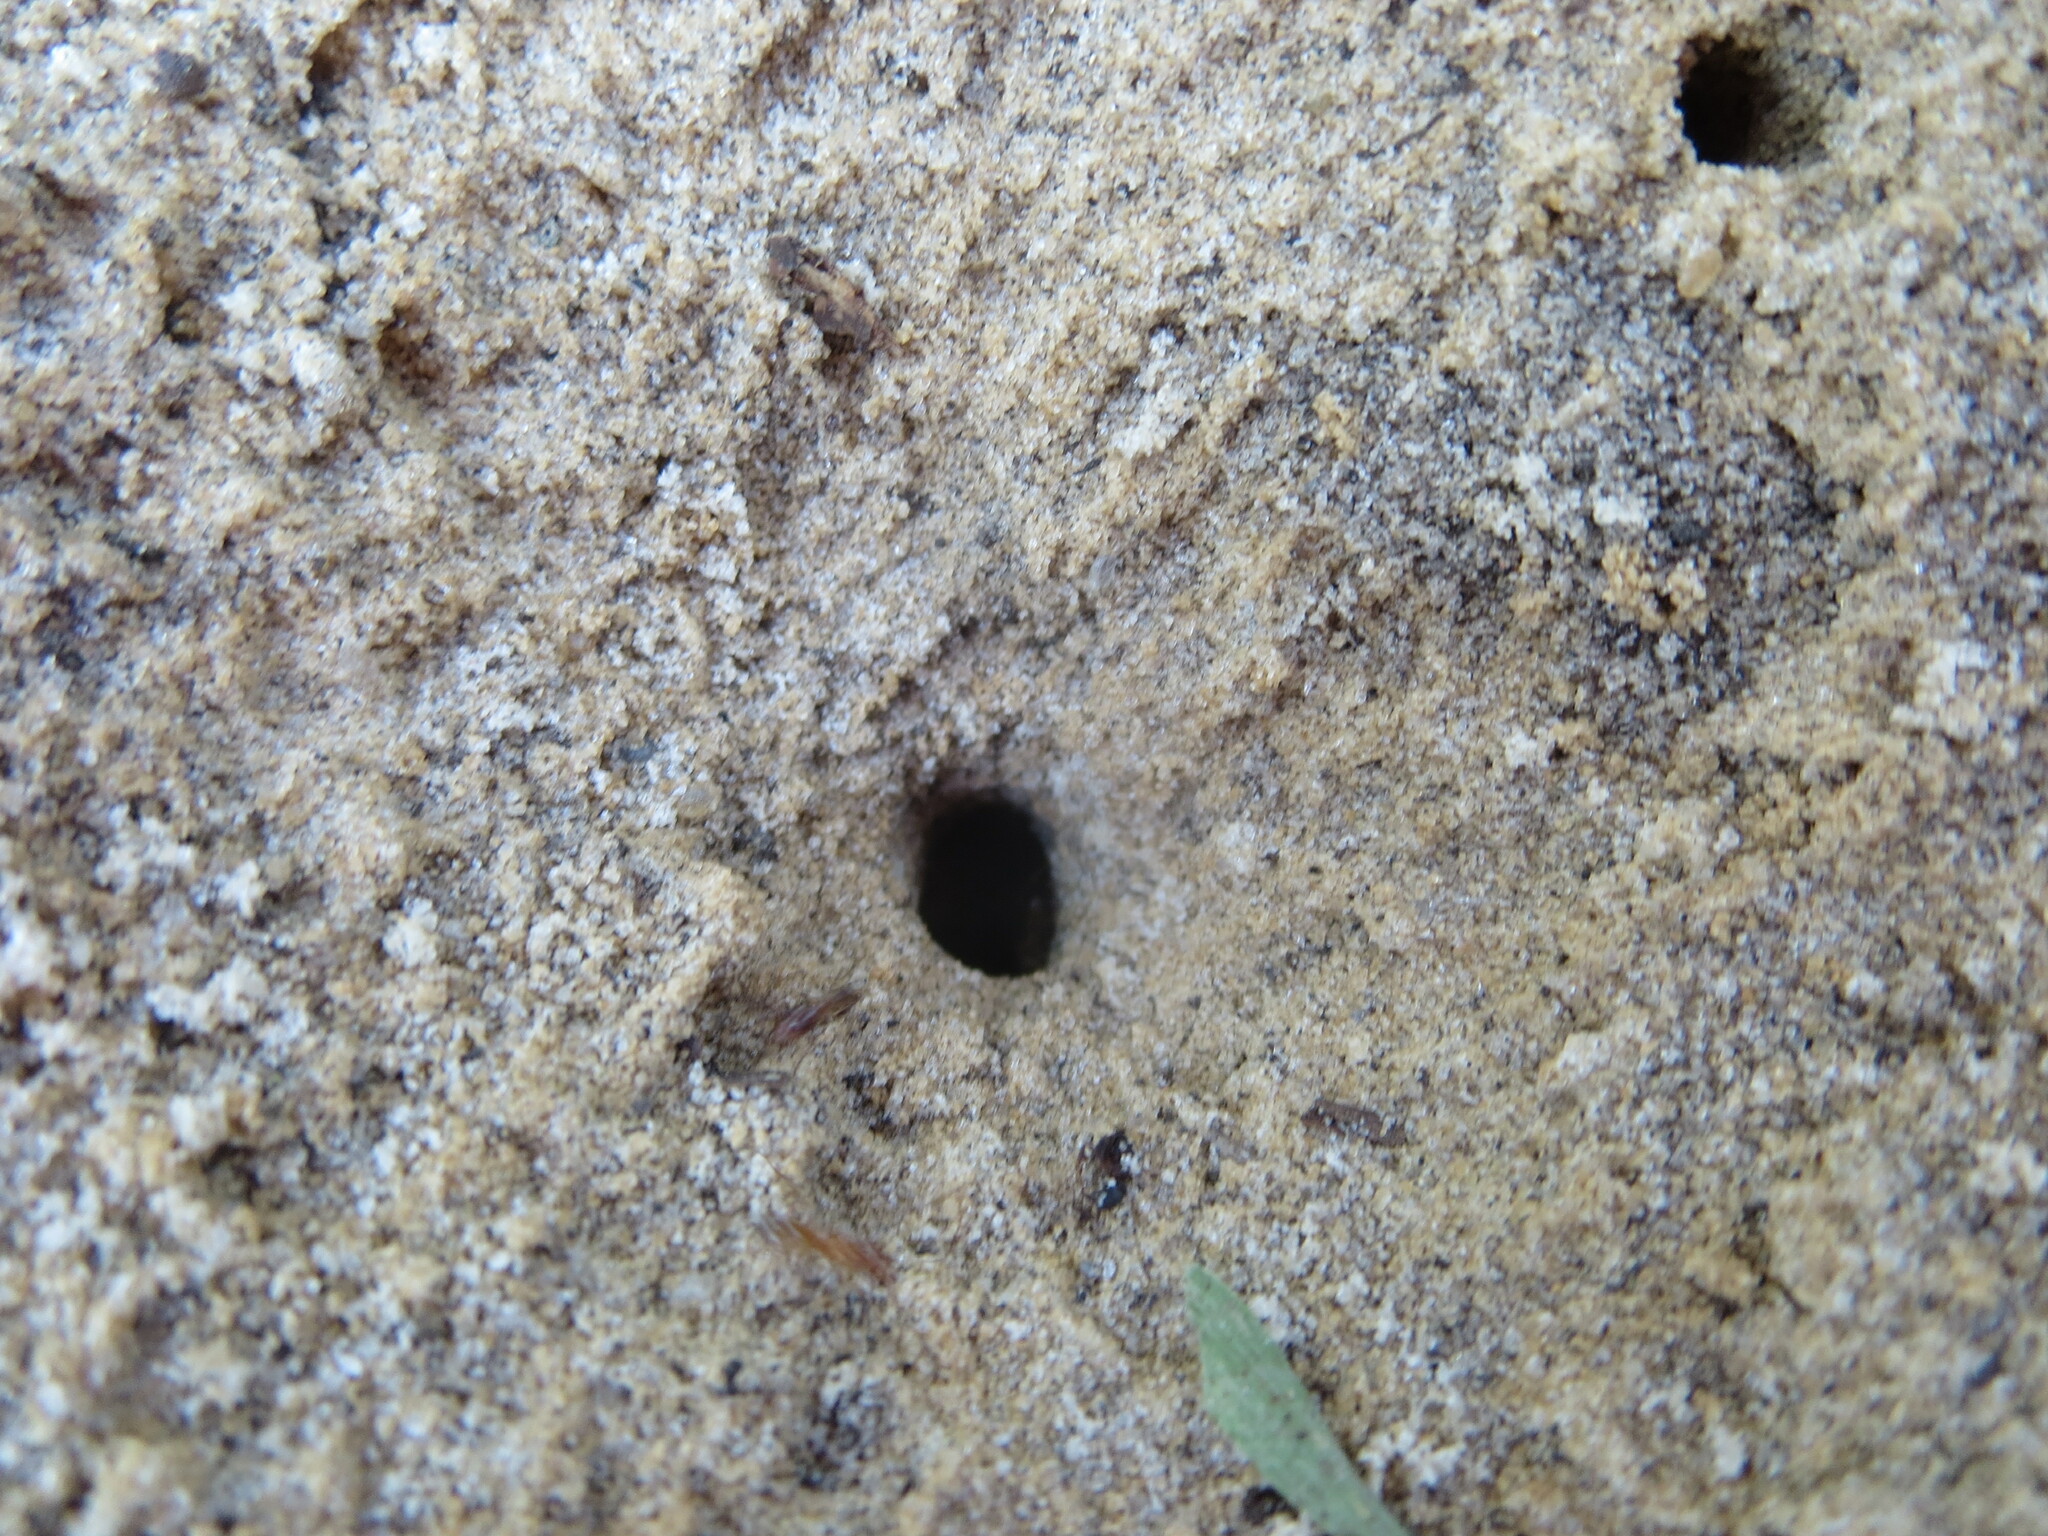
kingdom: Animalia
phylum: Arthropoda
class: Insecta
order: Hymenoptera
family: Formicidae
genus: Dorymyrmex
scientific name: Dorymyrmex bureni
